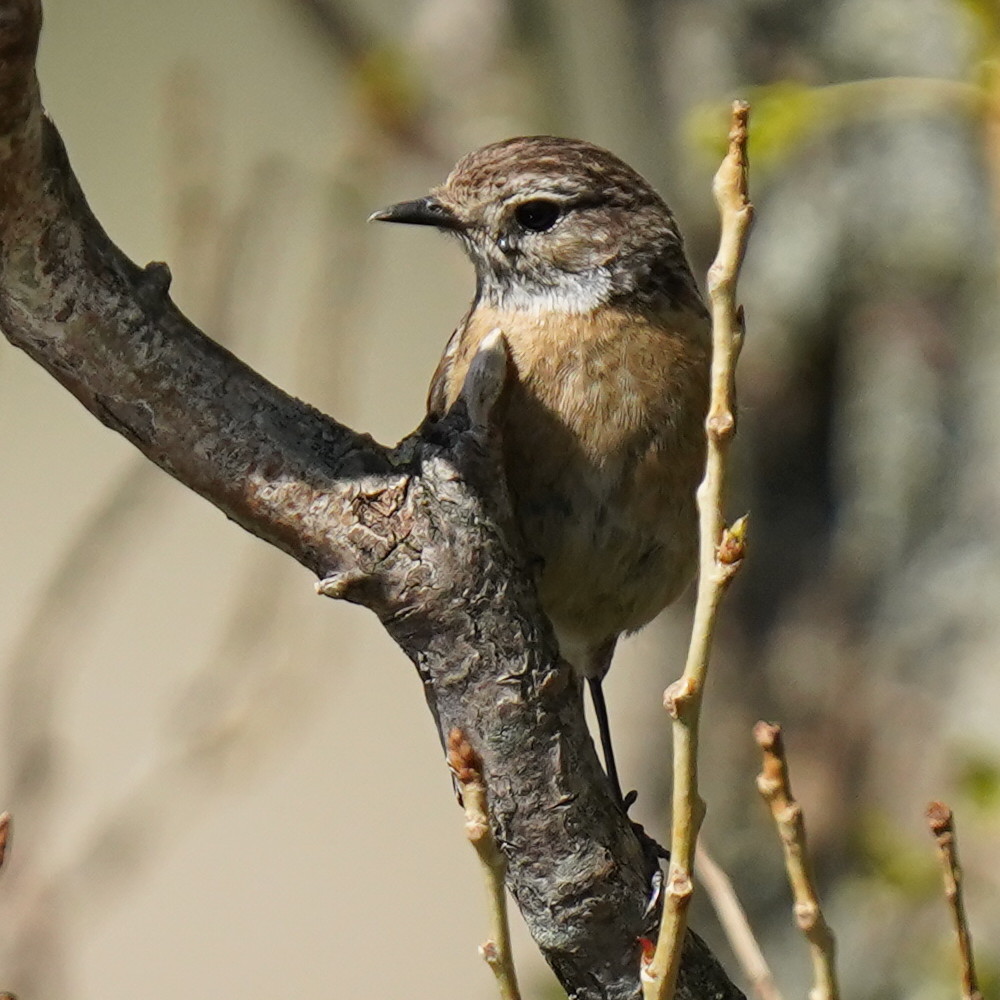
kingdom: Animalia
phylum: Chordata
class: Aves
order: Passeriformes
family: Muscicapidae
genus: Saxicola
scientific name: Saxicola rubicola
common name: European stonechat
